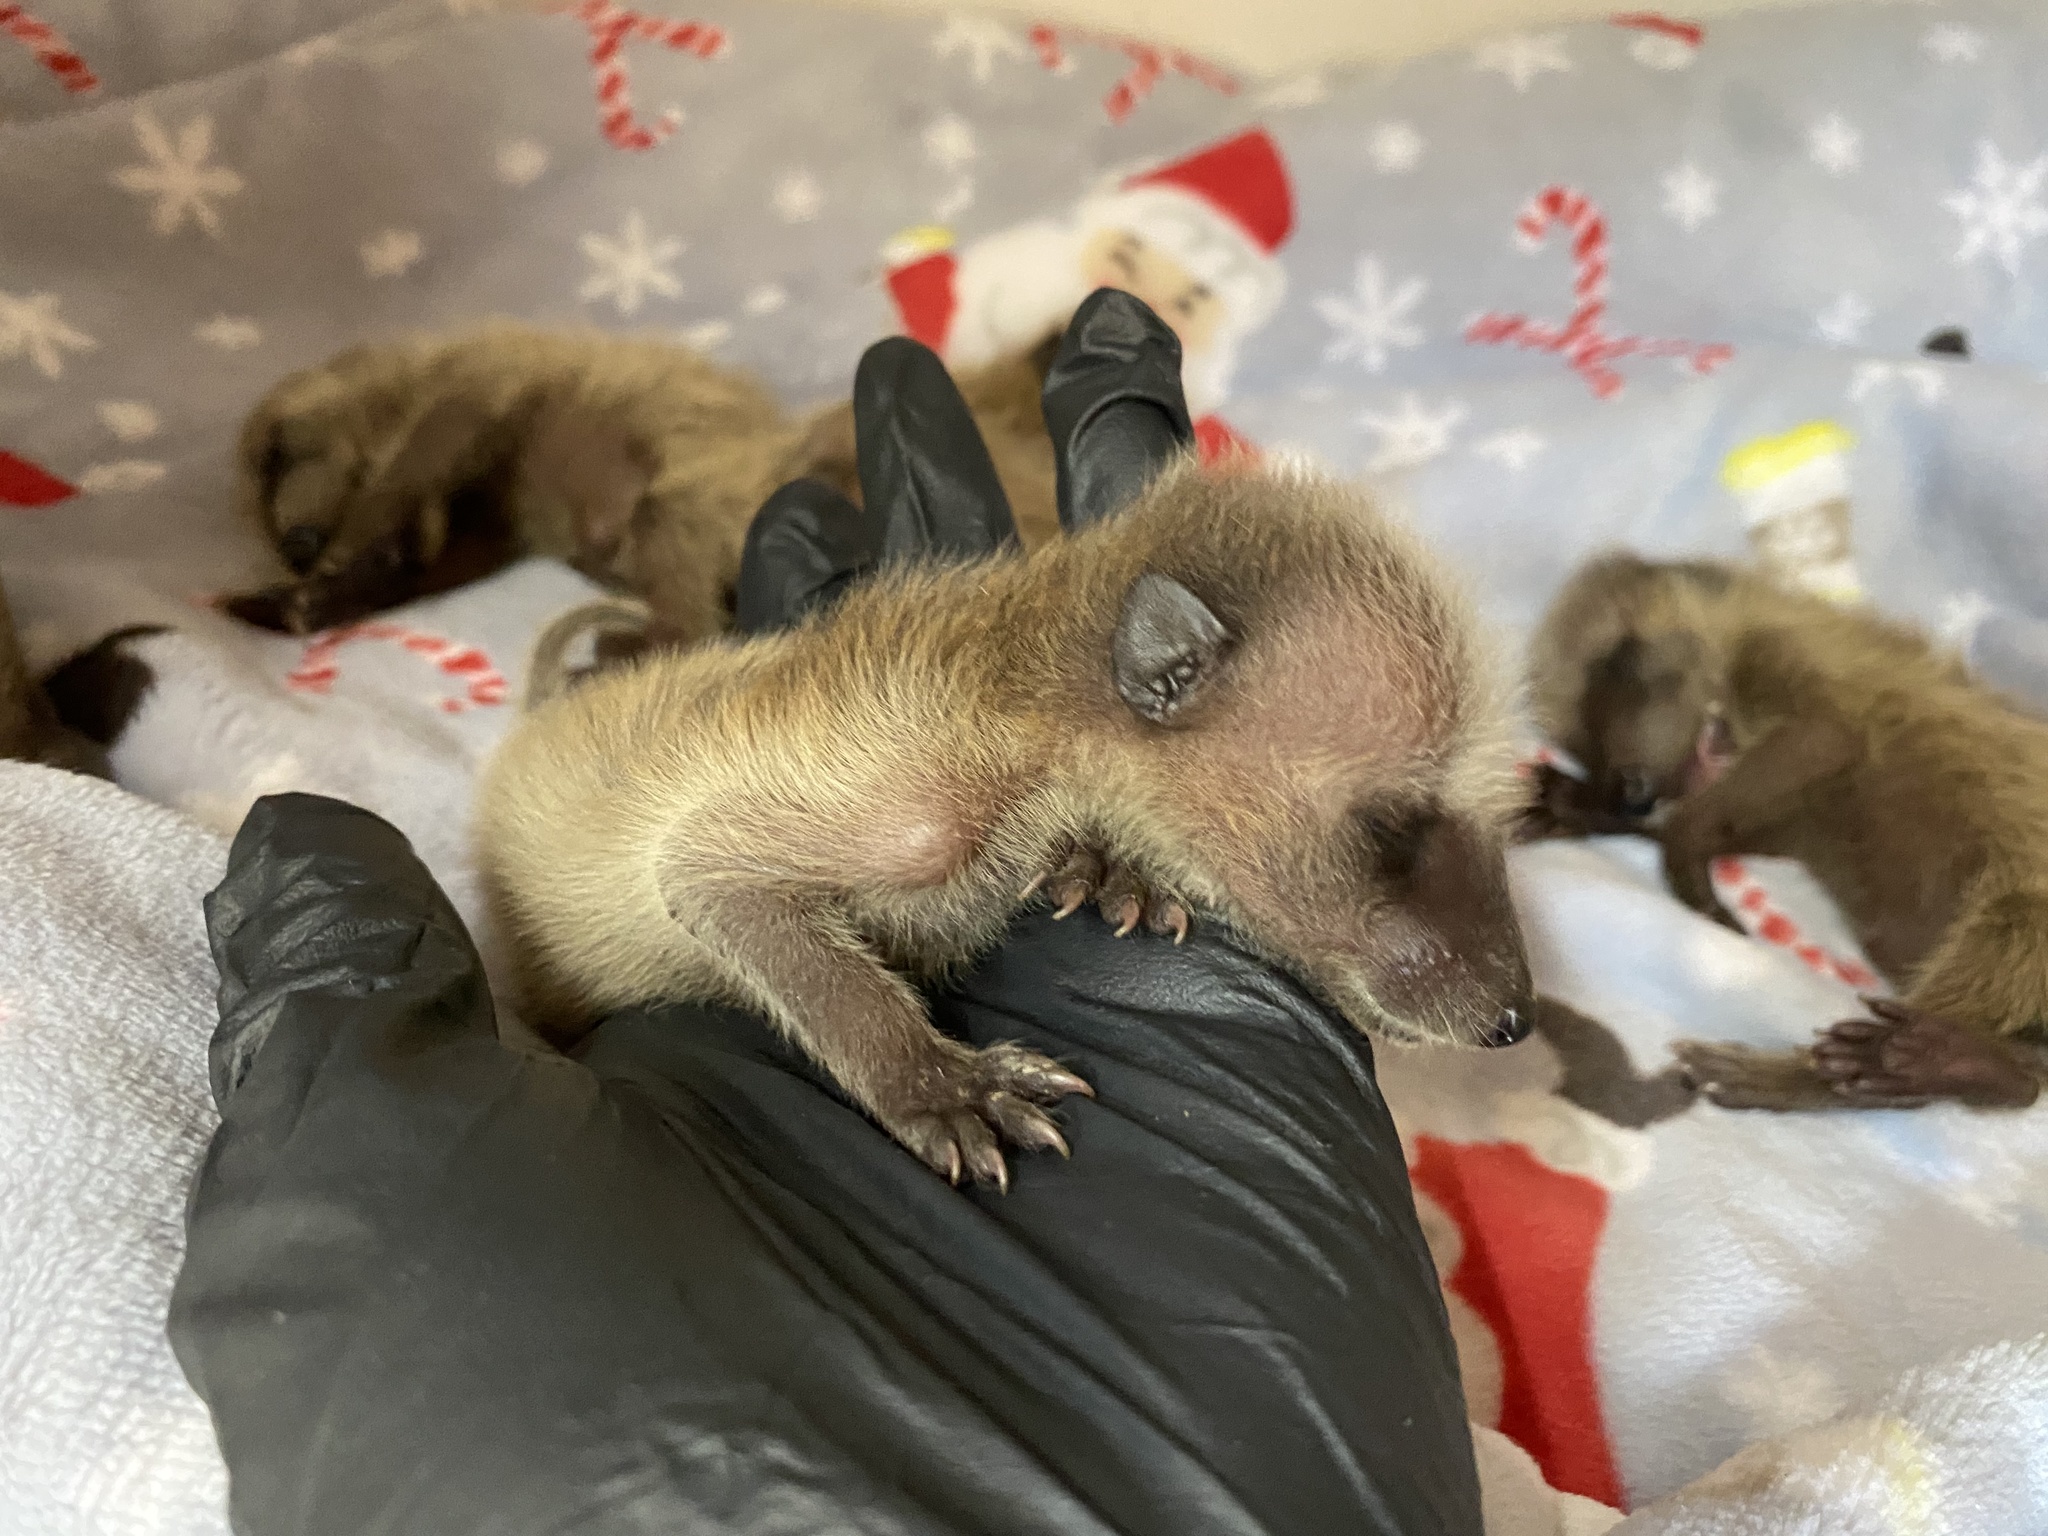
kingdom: Animalia
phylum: Chordata
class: Mammalia
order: Carnivora
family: Procyonidae
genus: Procyon
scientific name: Procyon lotor
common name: Raccoon
